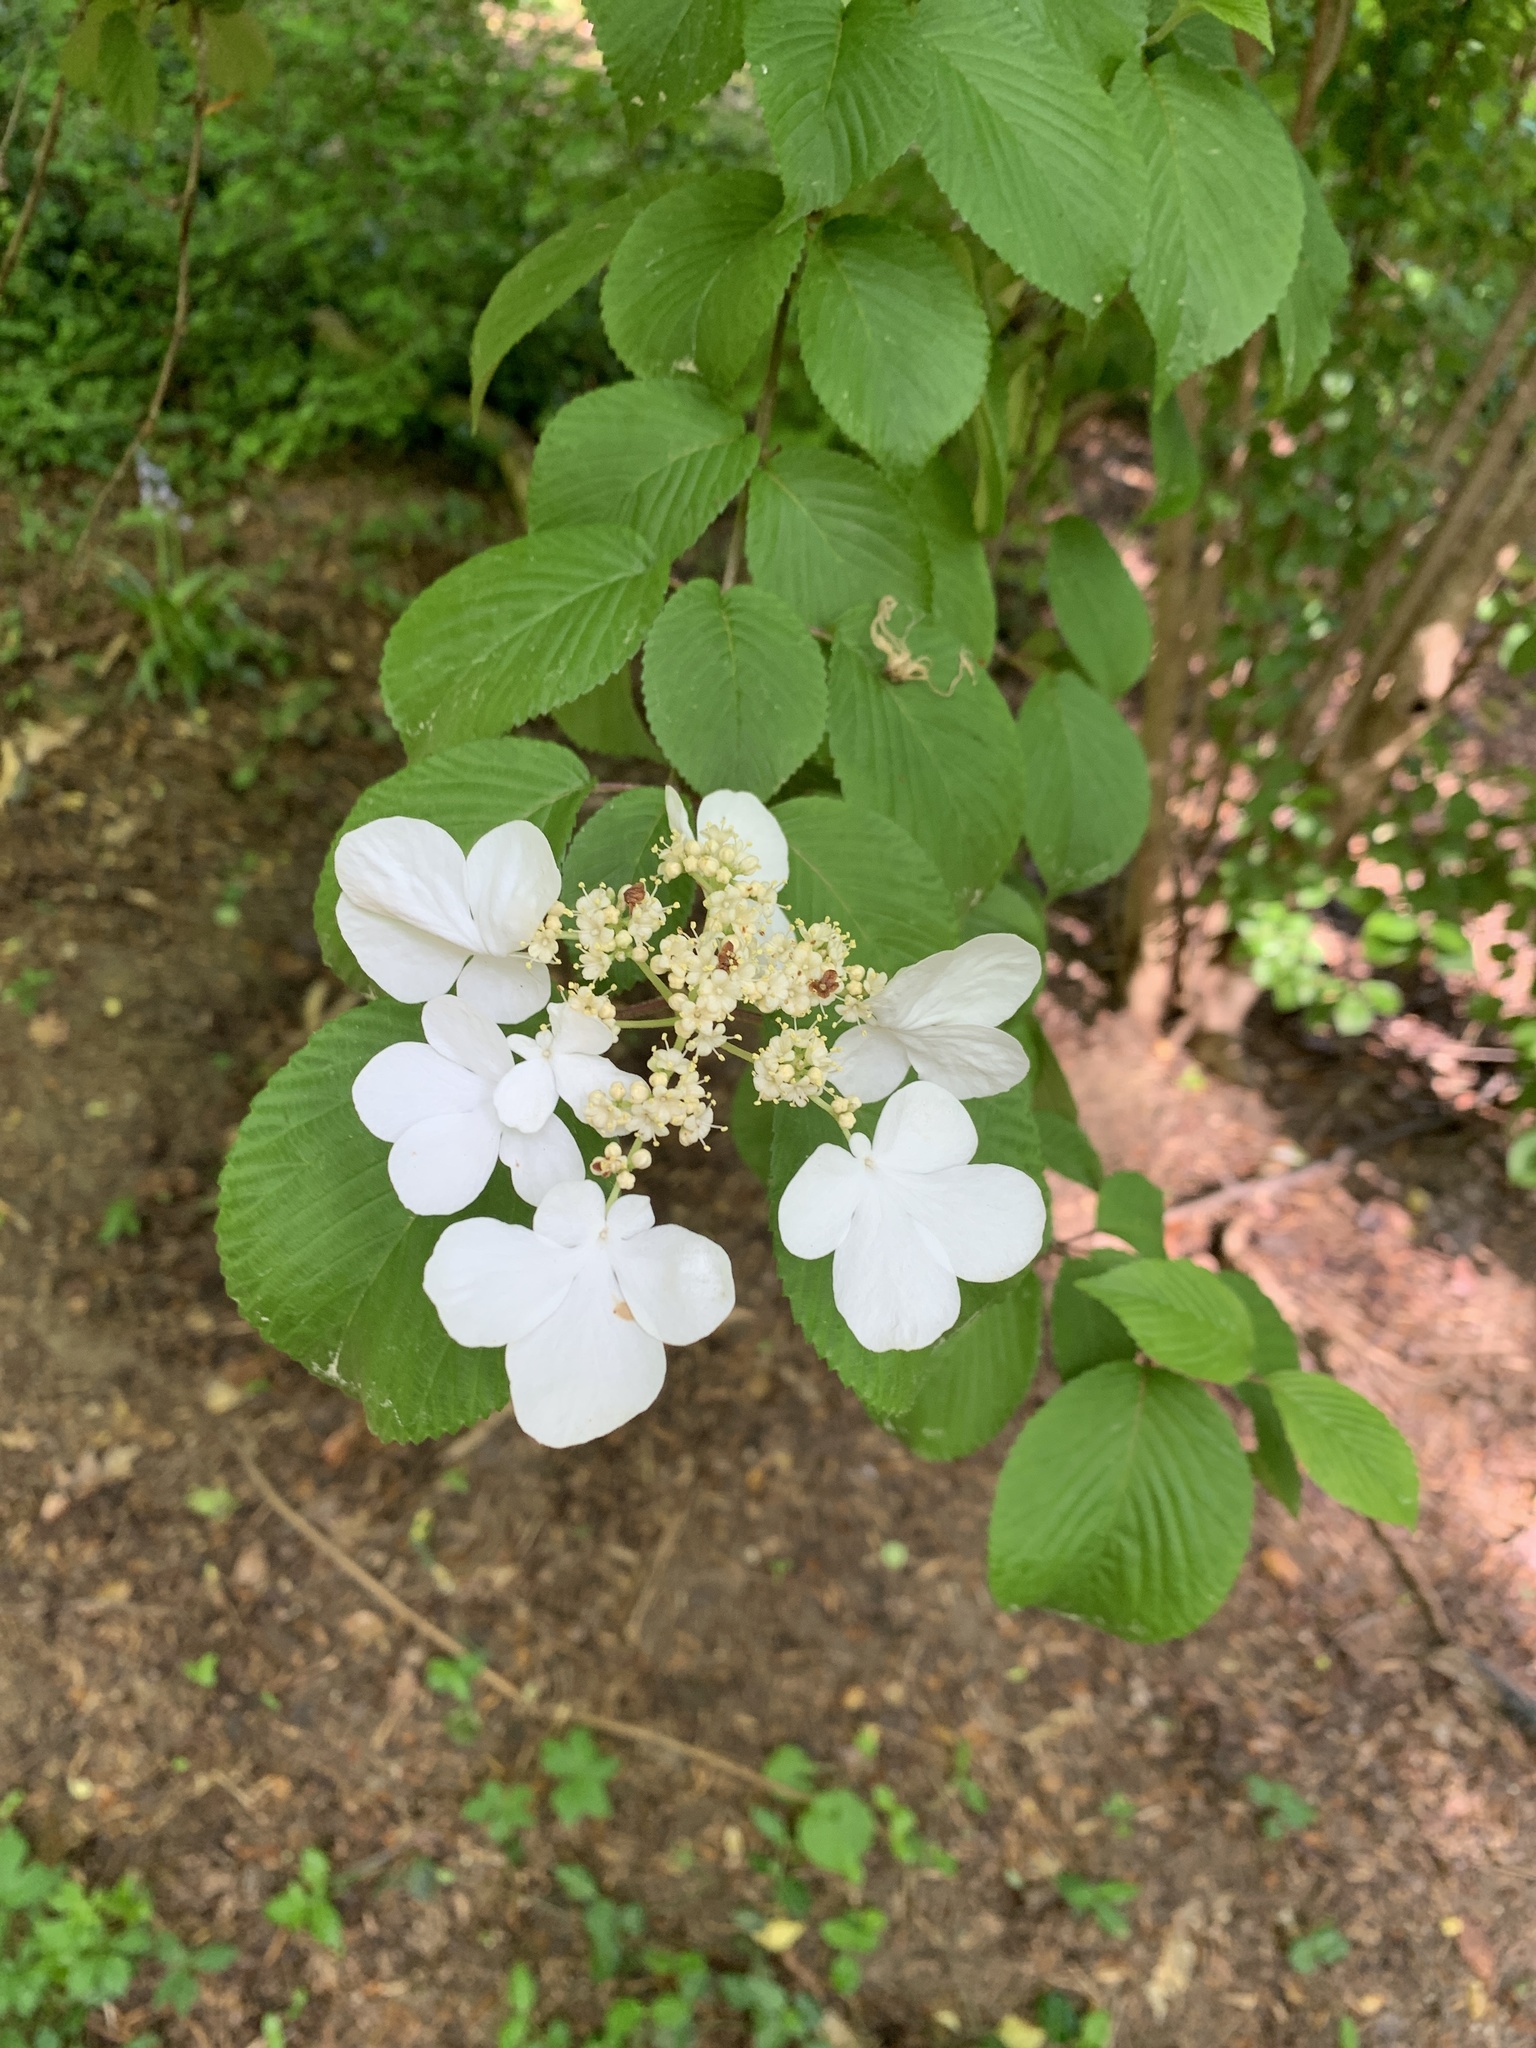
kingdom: Plantae
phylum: Tracheophyta
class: Magnoliopsida
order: Dipsacales
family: Viburnaceae
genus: Viburnum
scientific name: Viburnum plicatum
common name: Japanese snowball
